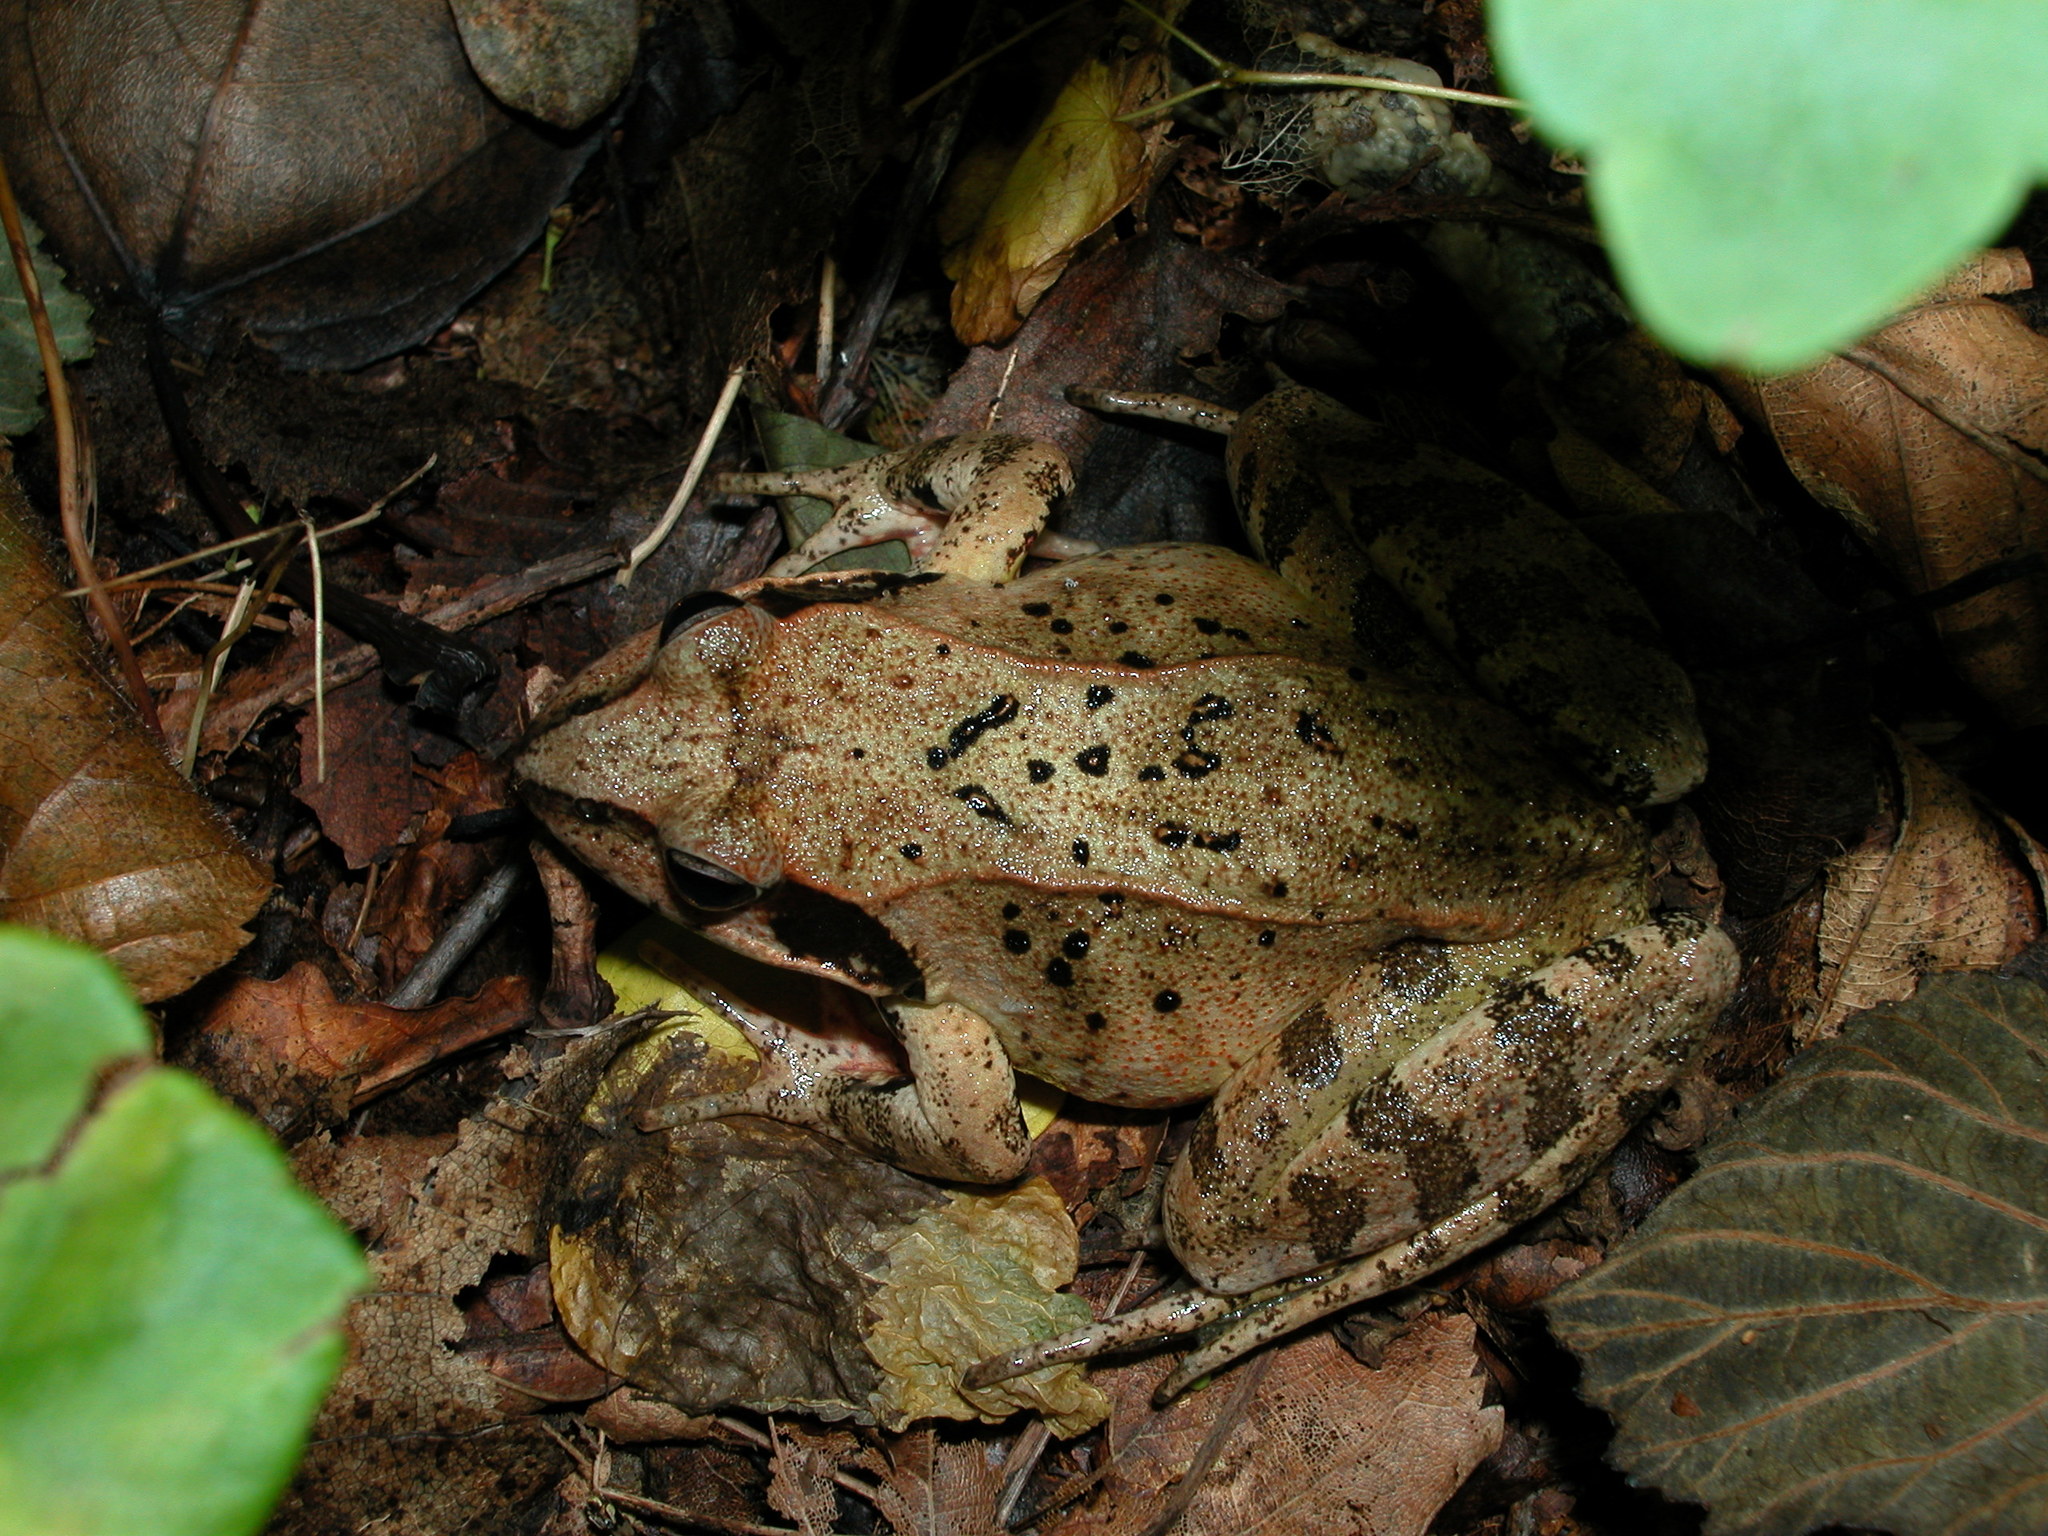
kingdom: Animalia
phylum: Chordata
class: Amphibia
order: Anura
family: Ranidae
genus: Rana
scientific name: Rana dybowskii
